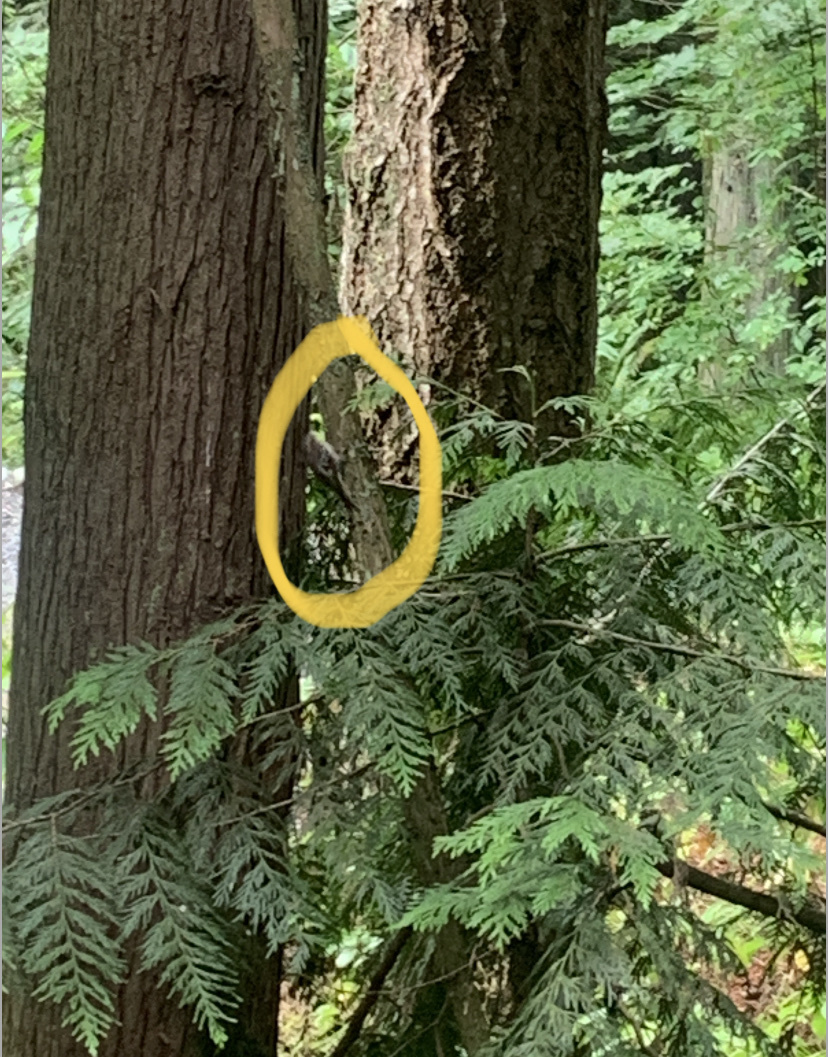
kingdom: Animalia
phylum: Chordata
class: Aves
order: Passeriformes
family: Certhiidae
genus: Certhia
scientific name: Certhia americana
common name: Brown creeper
